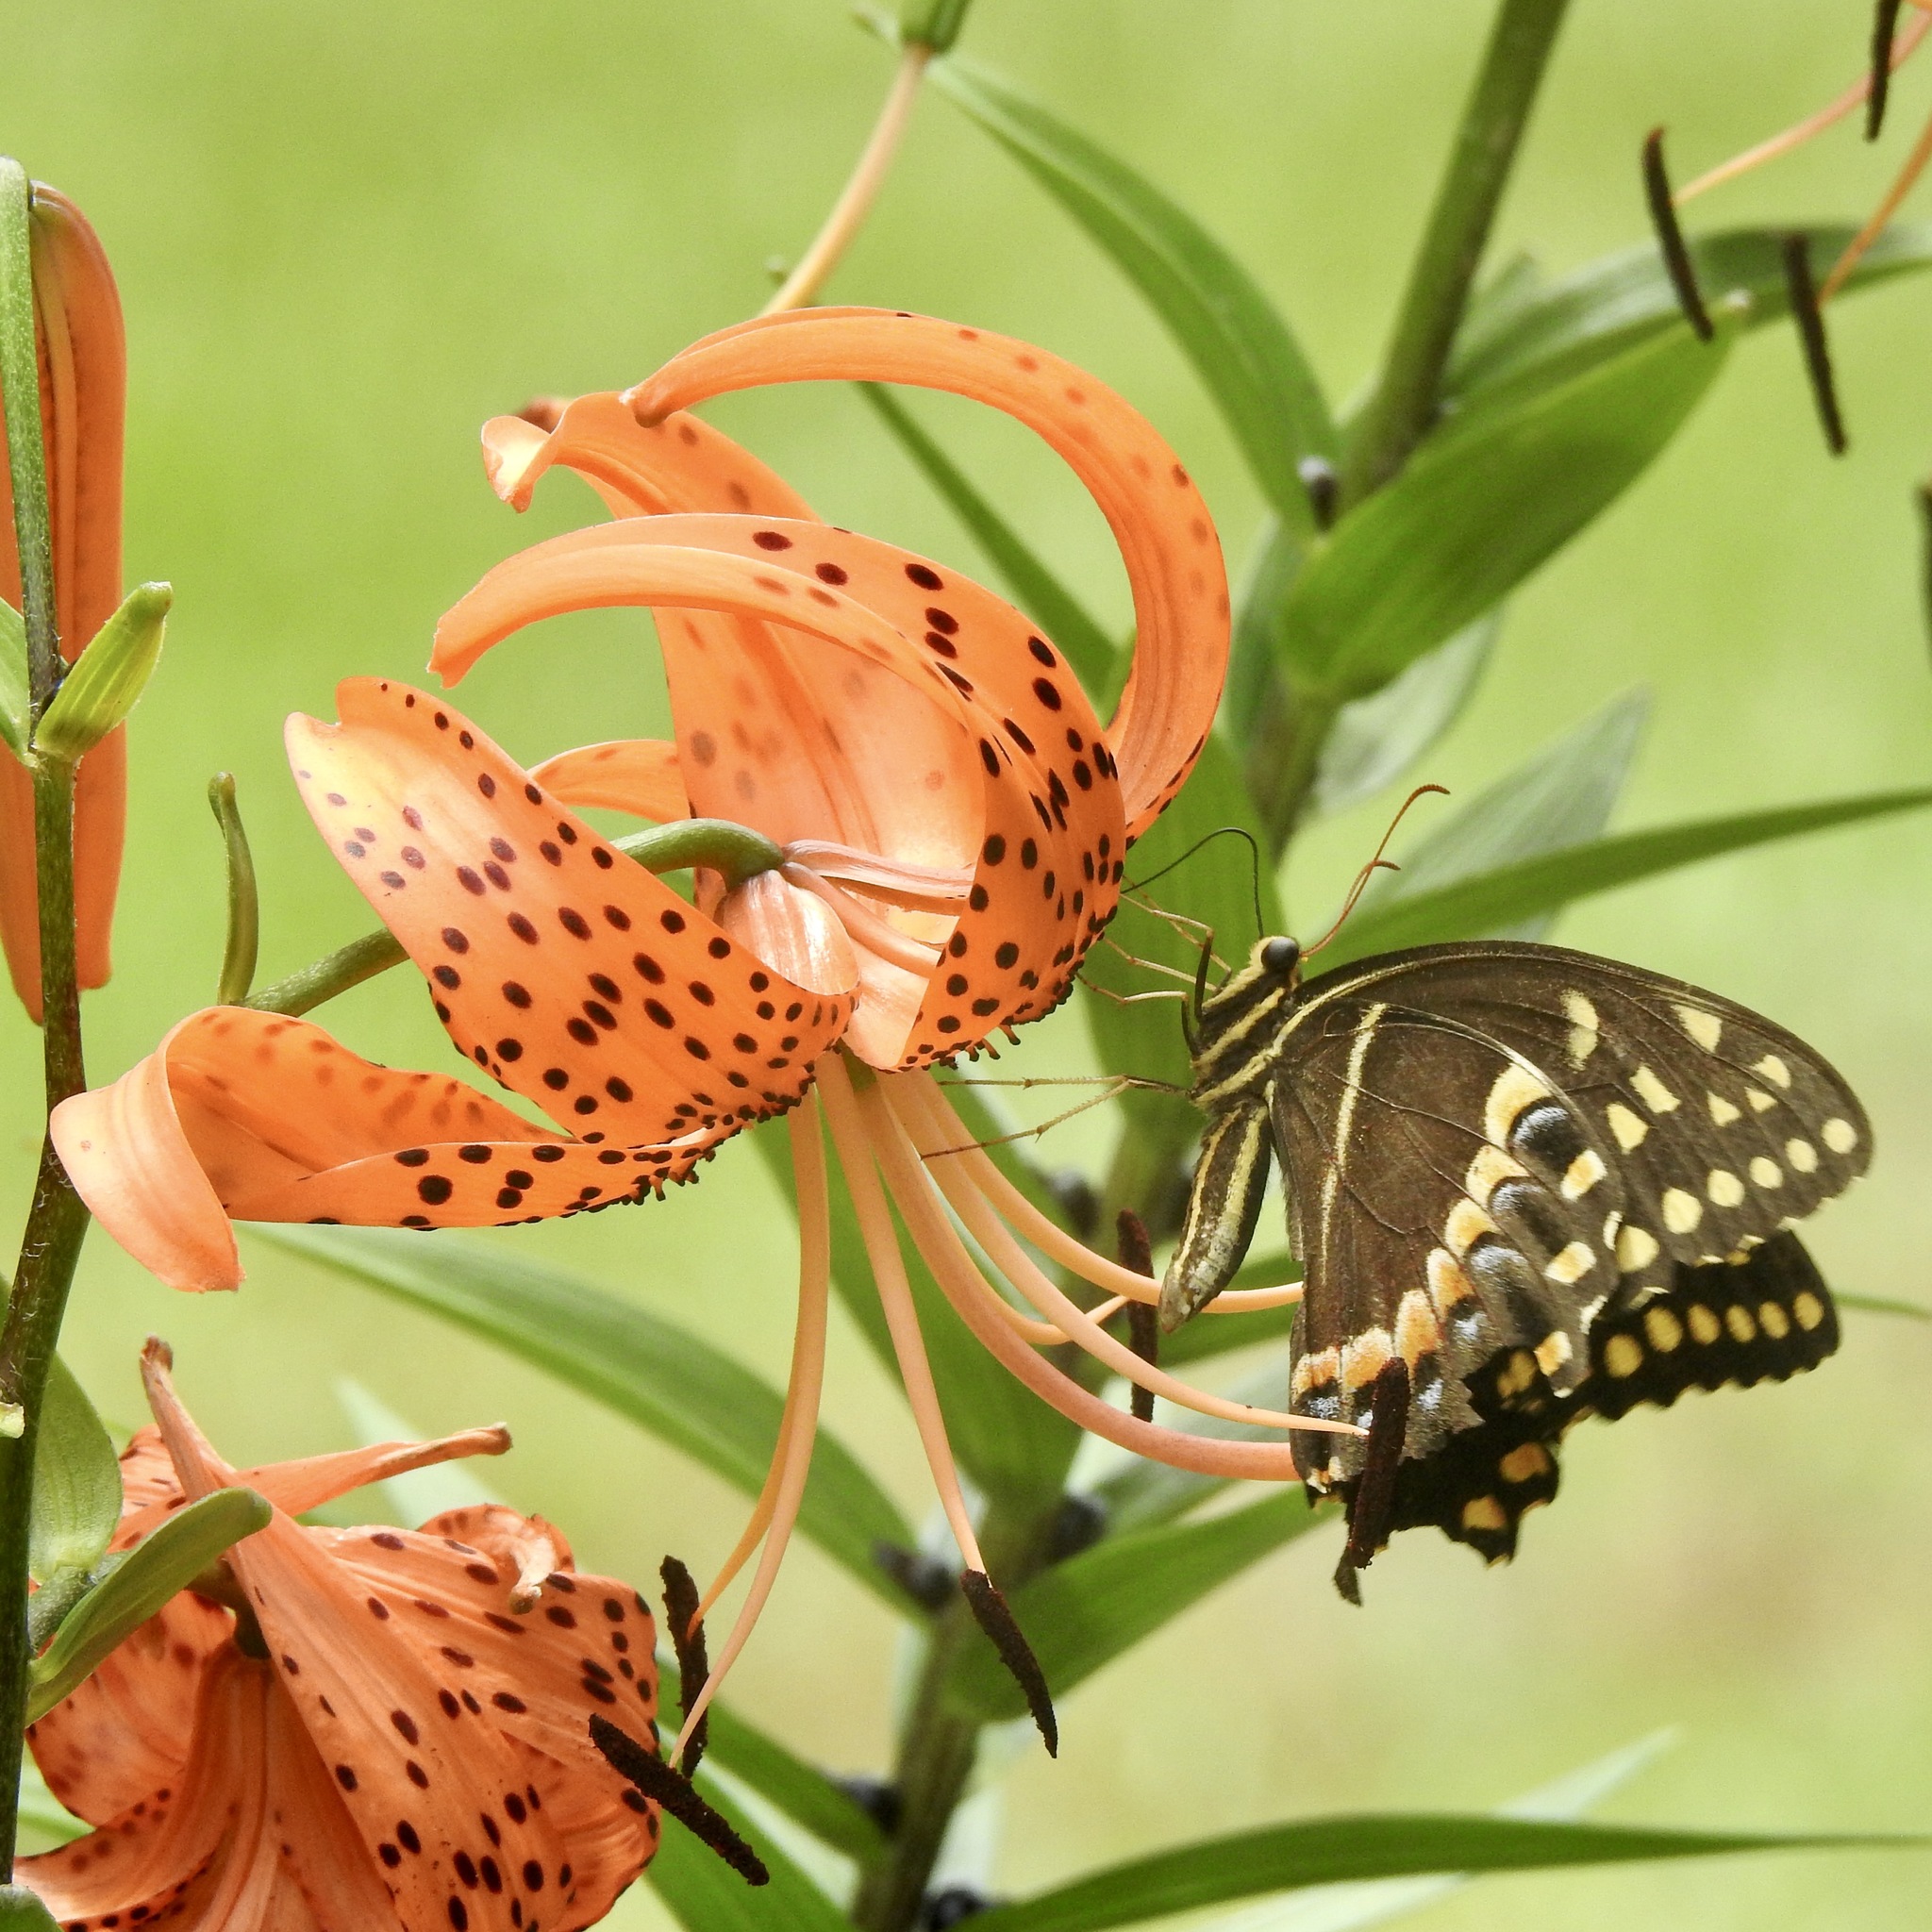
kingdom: Animalia
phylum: Arthropoda
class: Insecta
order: Lepidoptera
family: Papilionidae
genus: Papilio
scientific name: Papilio palamedes
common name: Palamedes swallowtail
